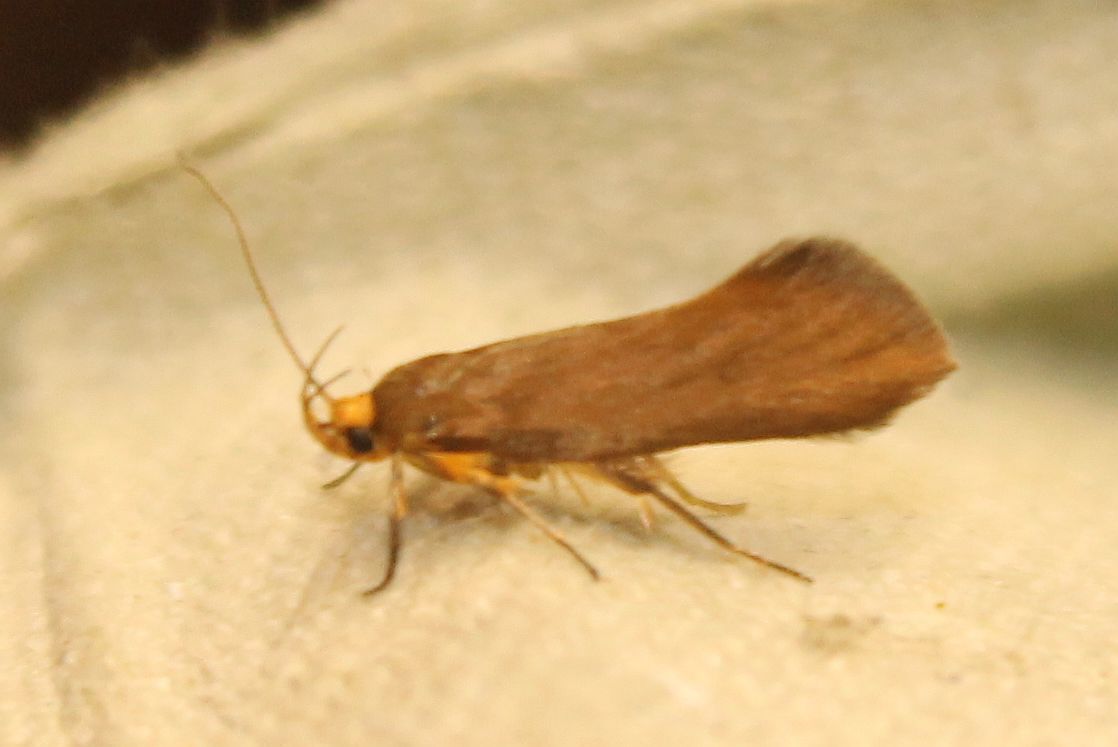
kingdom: Animalia
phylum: Arthropoda
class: Insecta
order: Lepidoptera
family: Oecophoridae
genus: Borkhausenia
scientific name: Borkhausenia Crassa unitella
